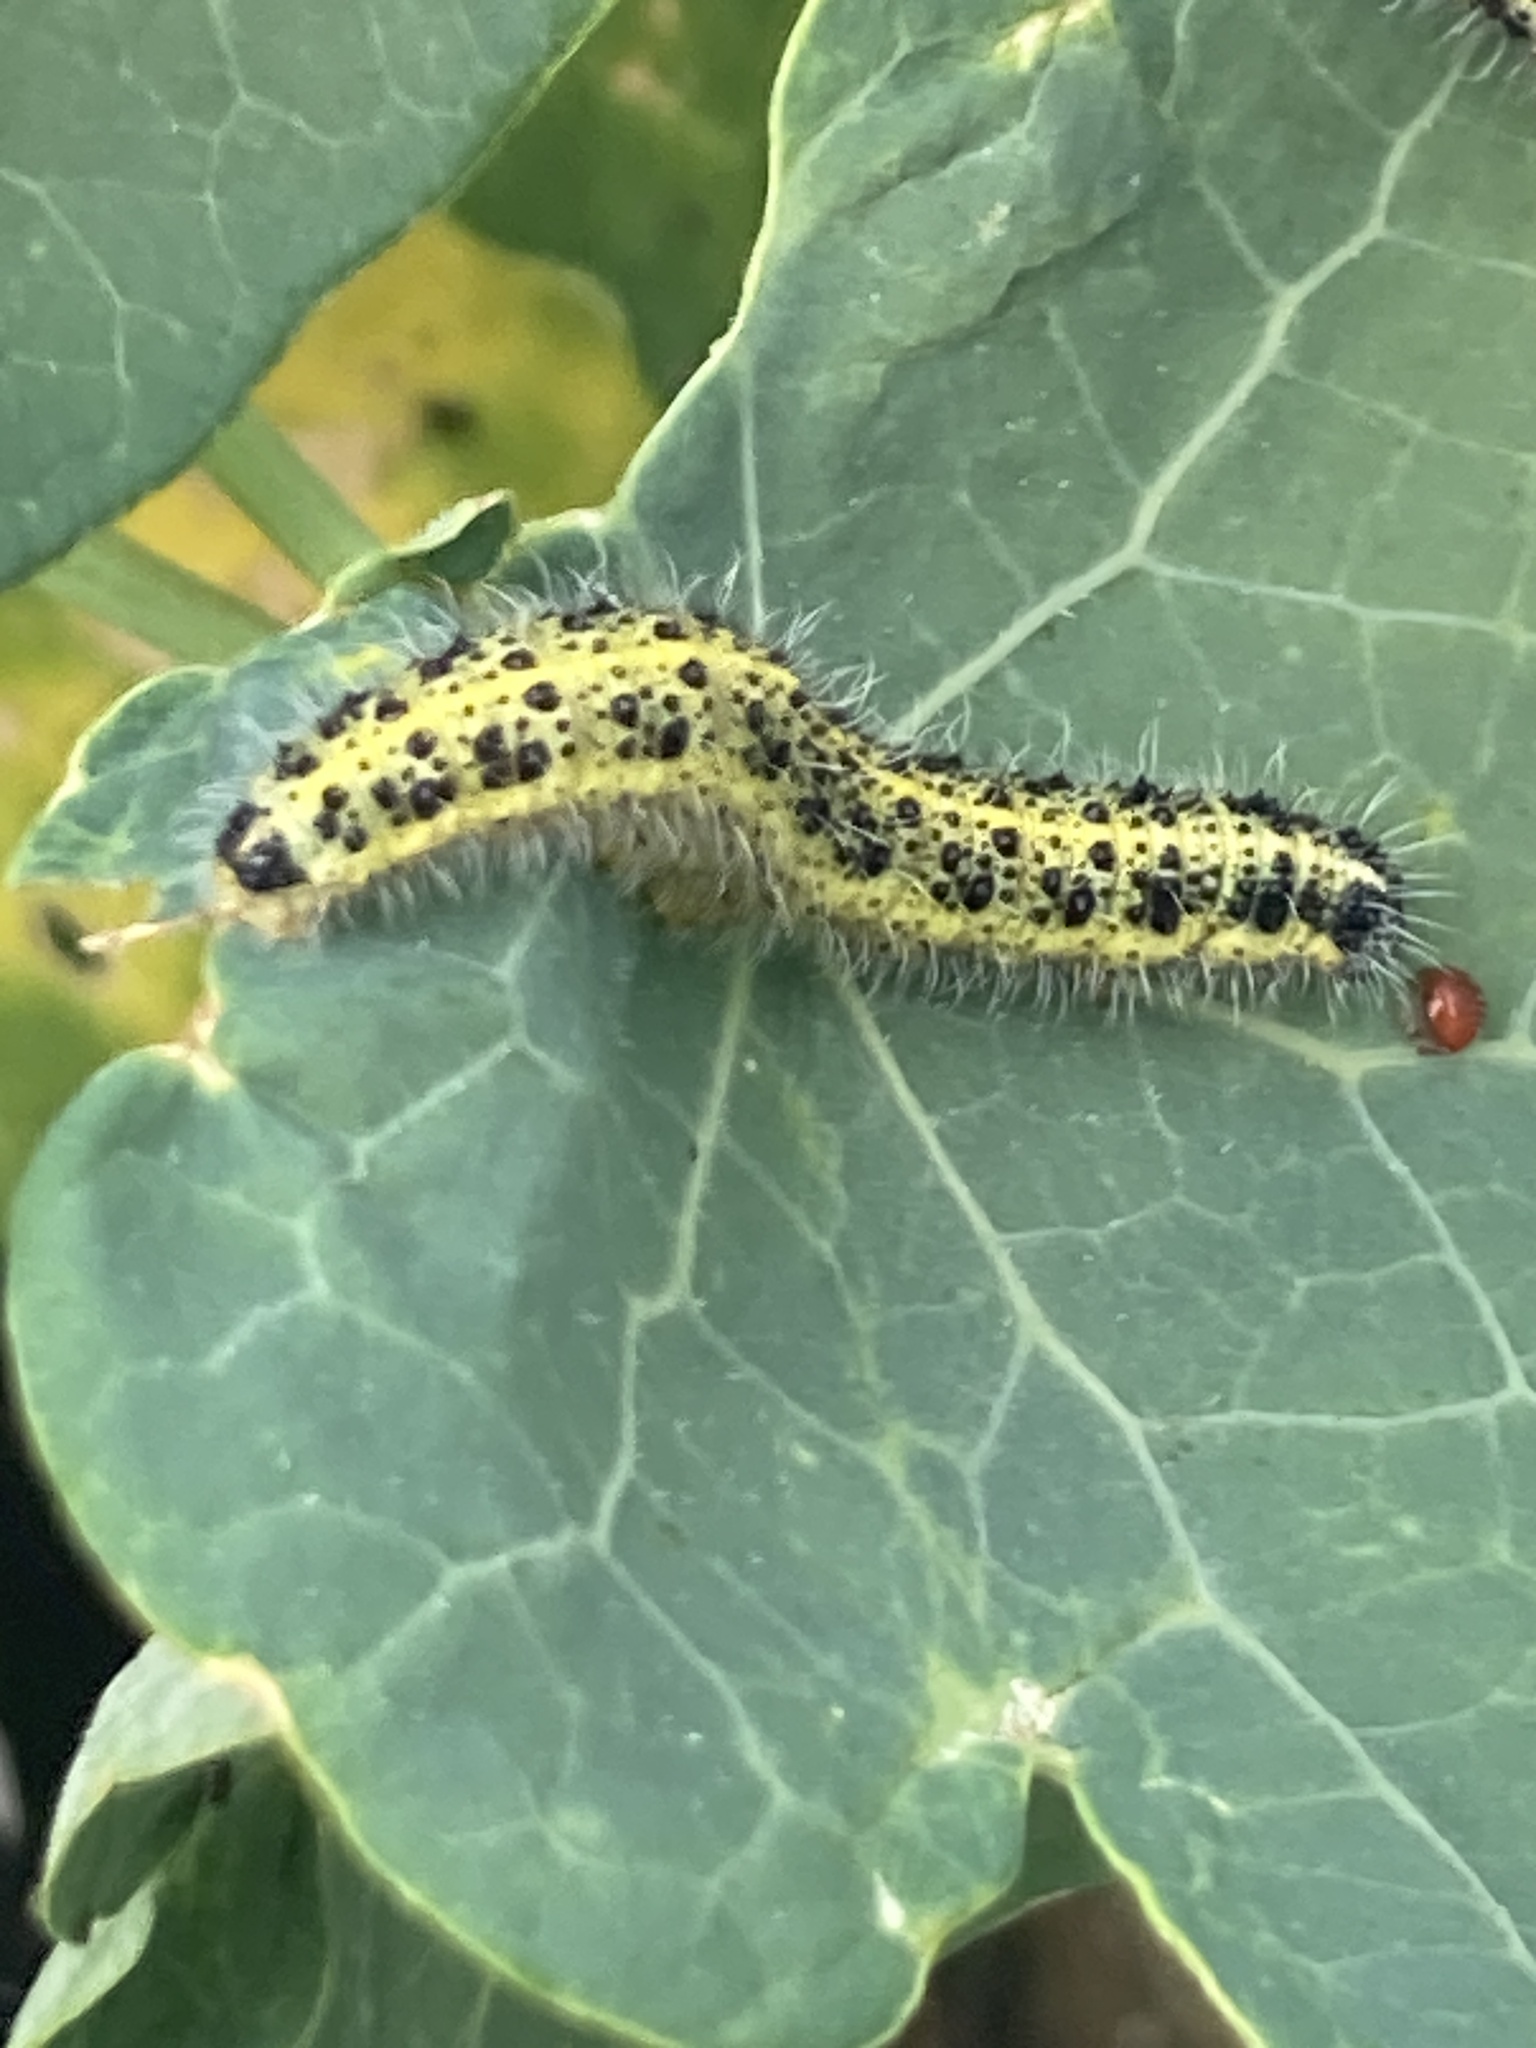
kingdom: Animalia
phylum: Arthropoda
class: Insecta
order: Lepidoptera
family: Pieridae
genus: Pieris
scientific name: Pieris brassicae
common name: Large white
